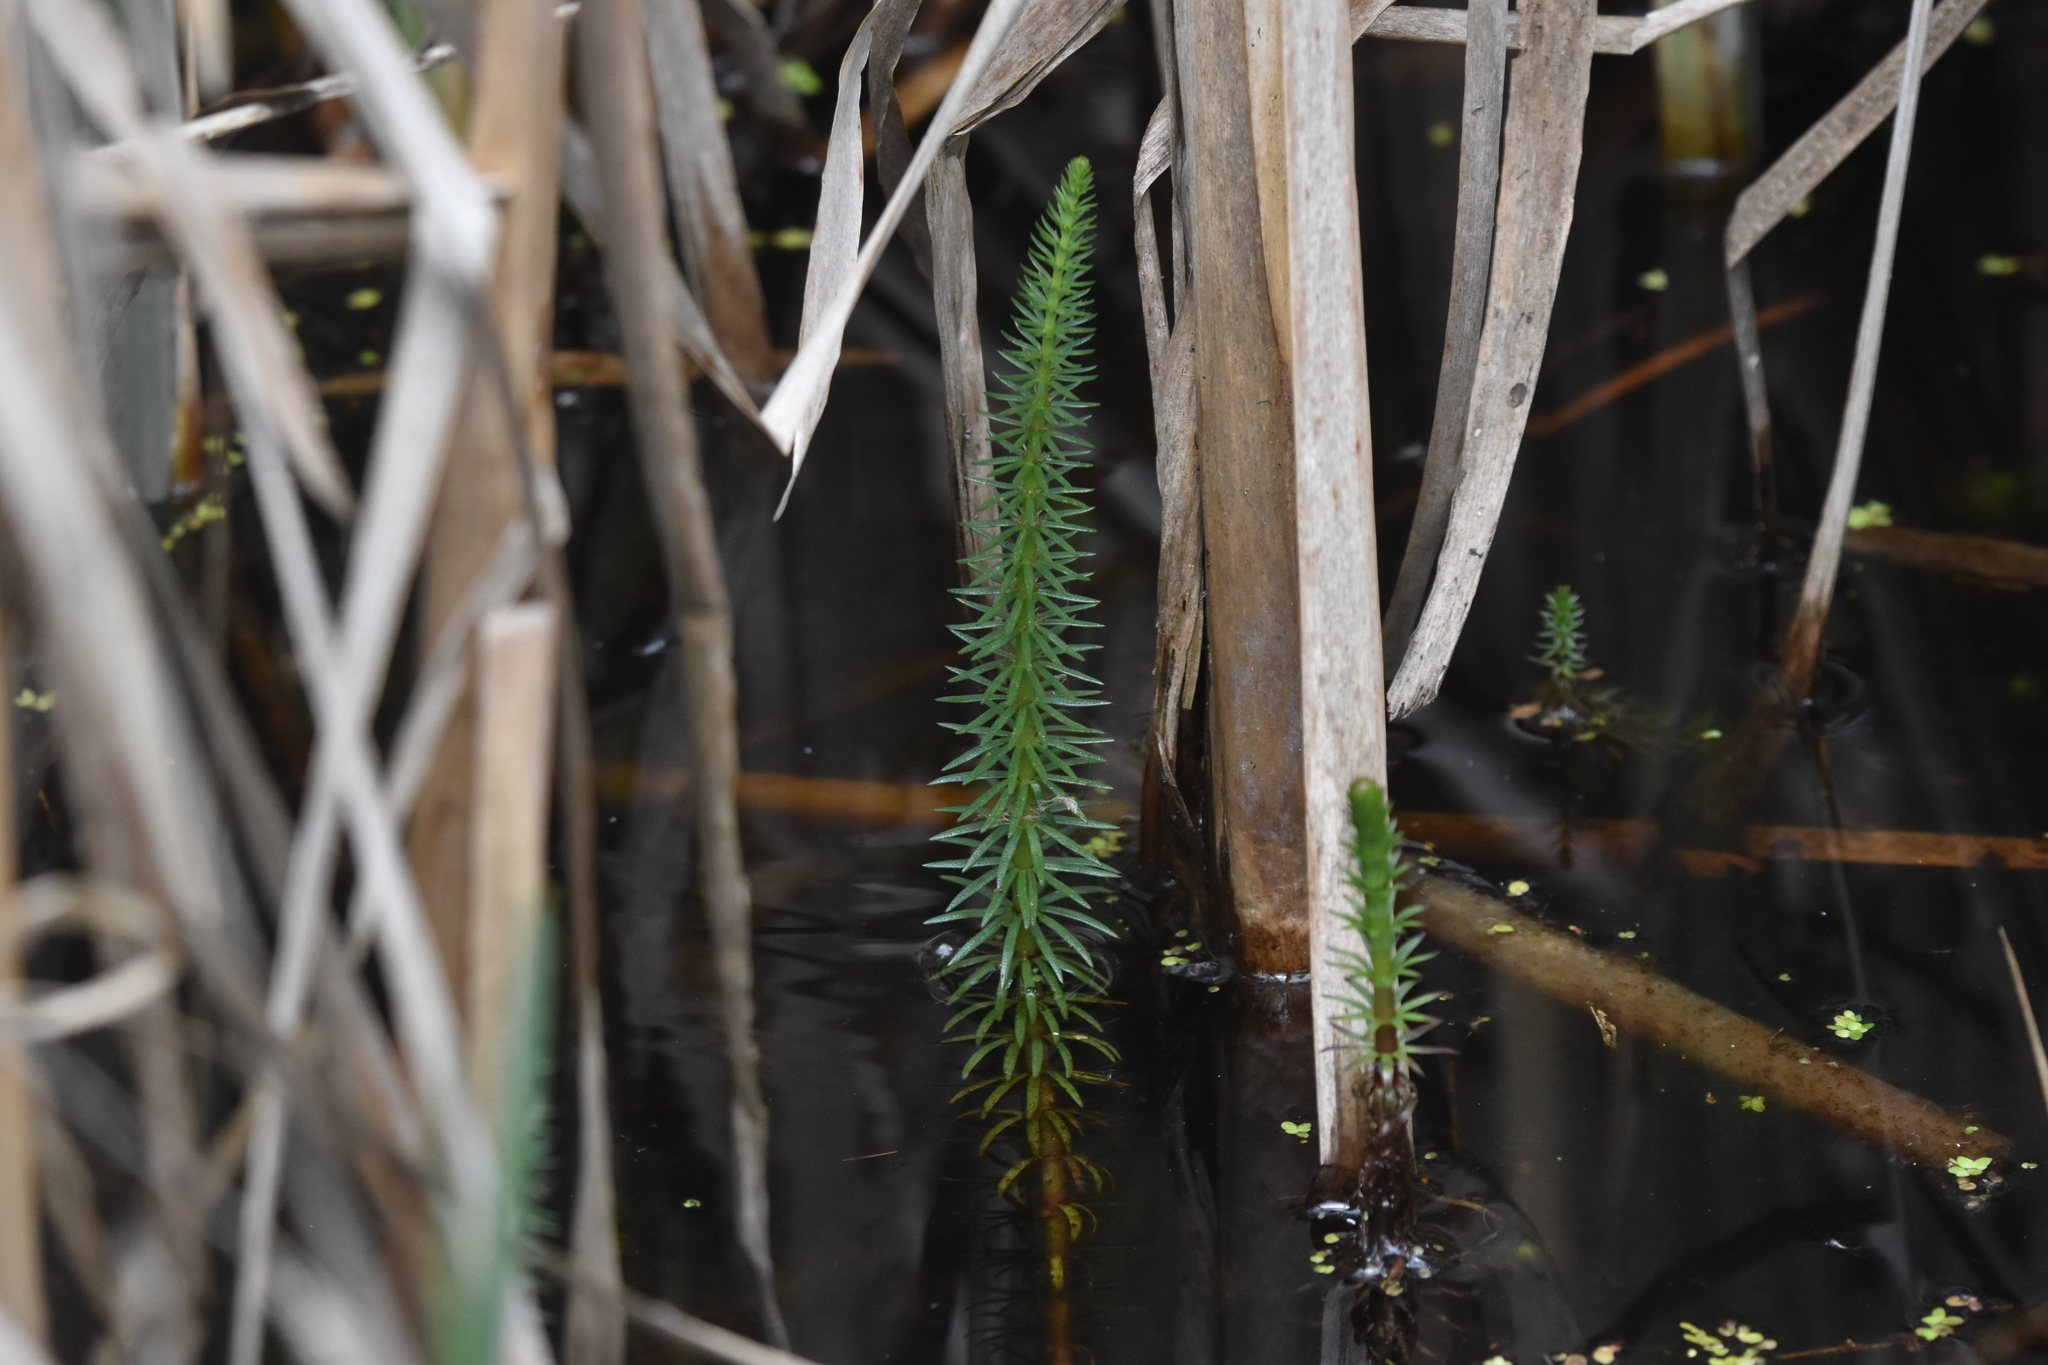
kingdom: Plantae
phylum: Tracheophyta
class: Magnoliopsida
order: Lamiales
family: Plantaginaceae
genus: Hippuris
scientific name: Hippuris vulgaris
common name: Mare's-tail
